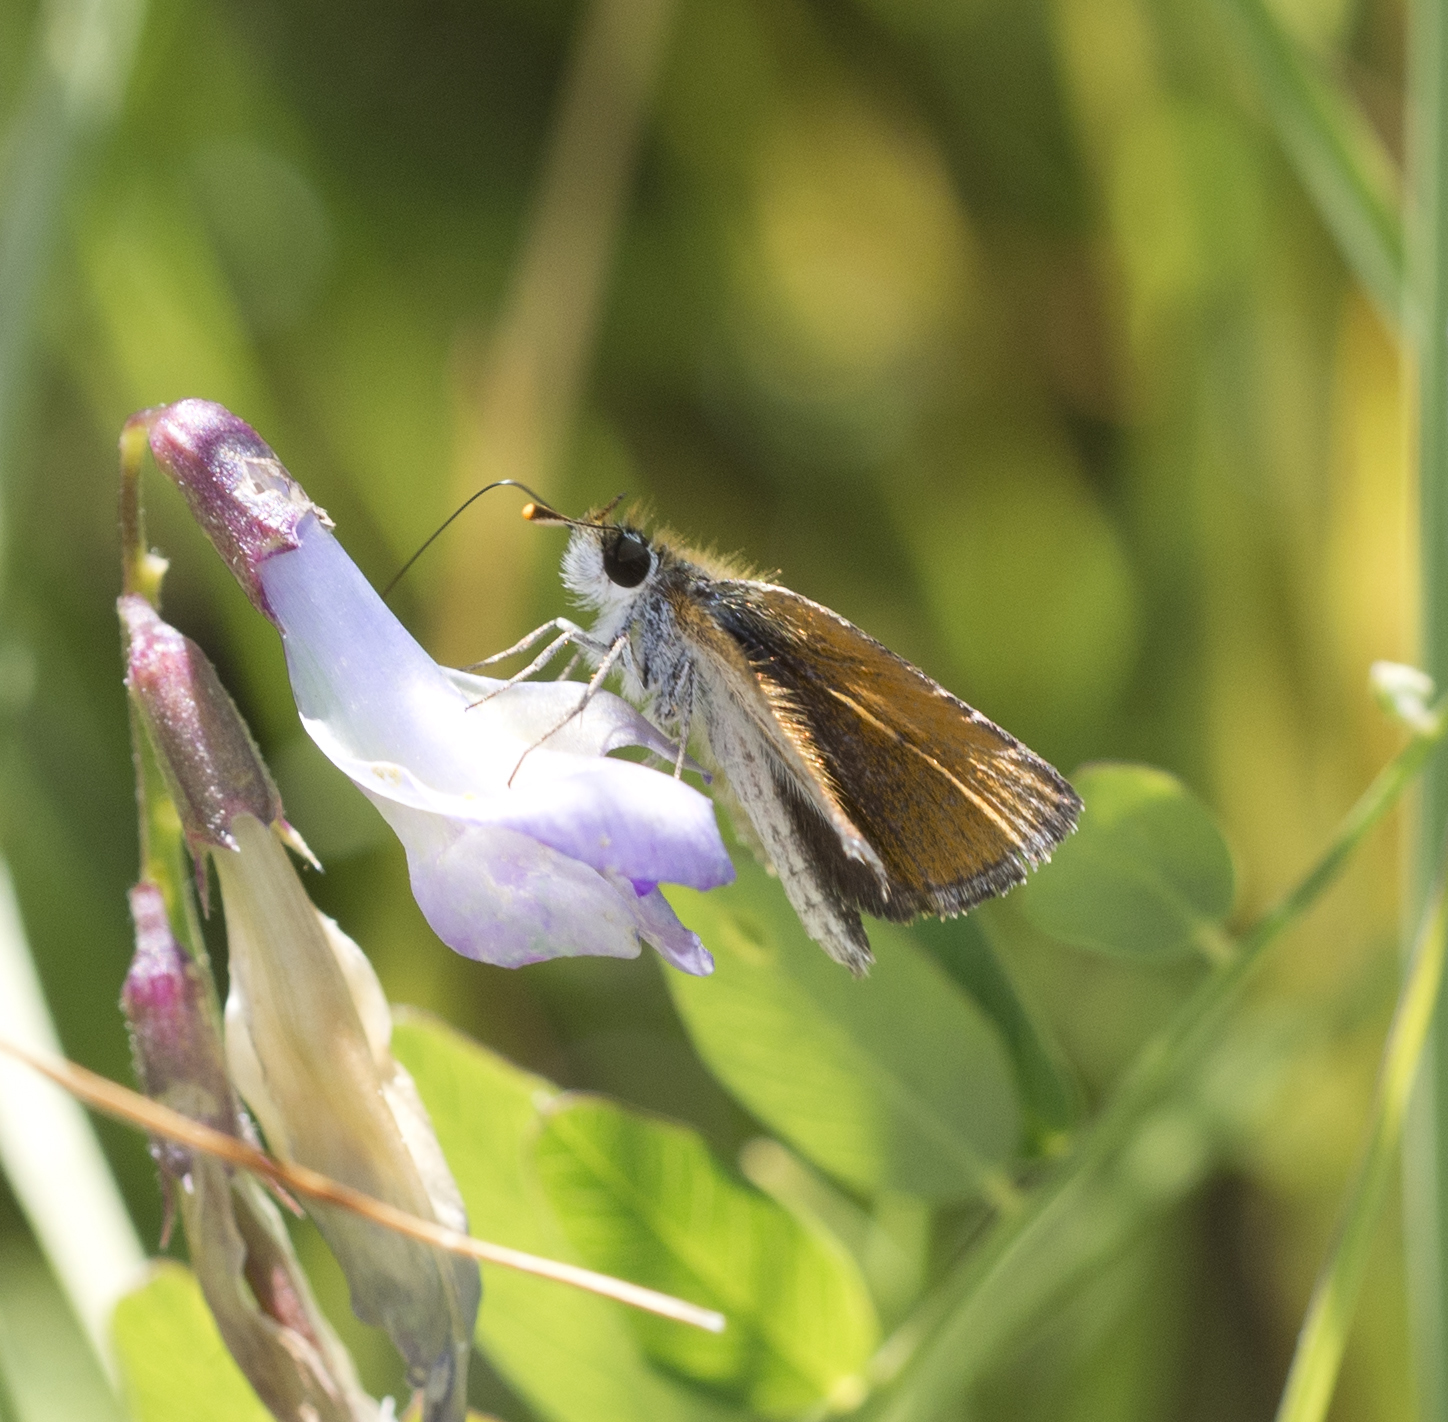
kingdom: Animalia
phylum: Arthropoda
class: Insecta
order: Lepidoptera
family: Hesperiidae
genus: Oarisma
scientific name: Oarisma garita
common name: Garita skipperling
